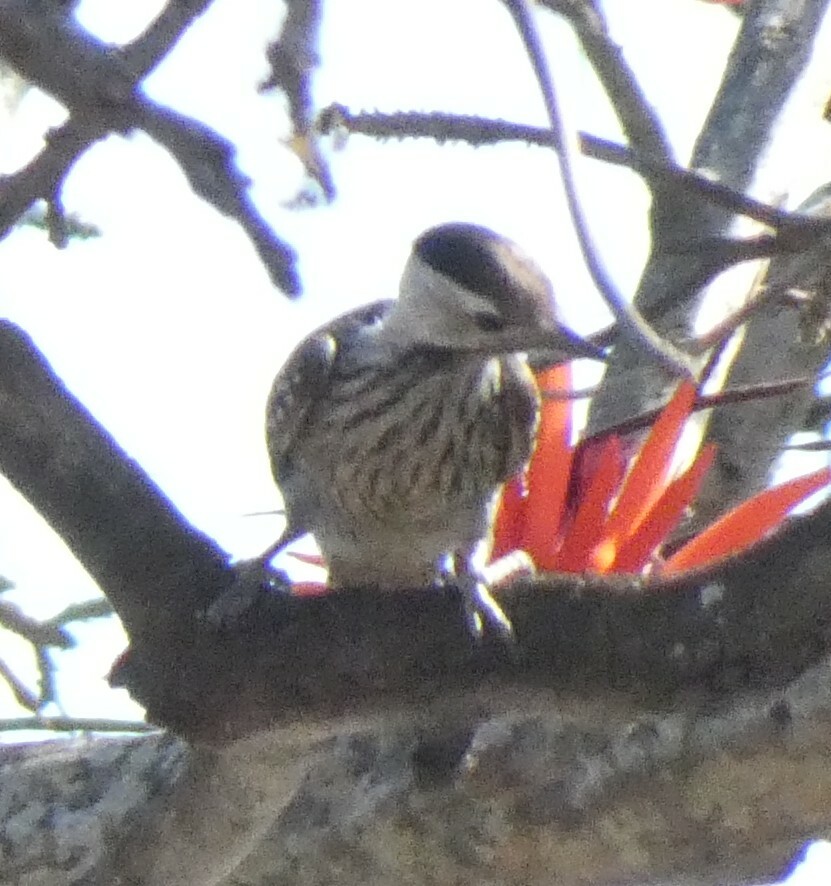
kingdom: Animalia
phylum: Chordata
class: Aves
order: Piciformes
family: Picidae
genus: Dendropicos
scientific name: Dendropicos fuscescens
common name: Cardinal woodpecker
